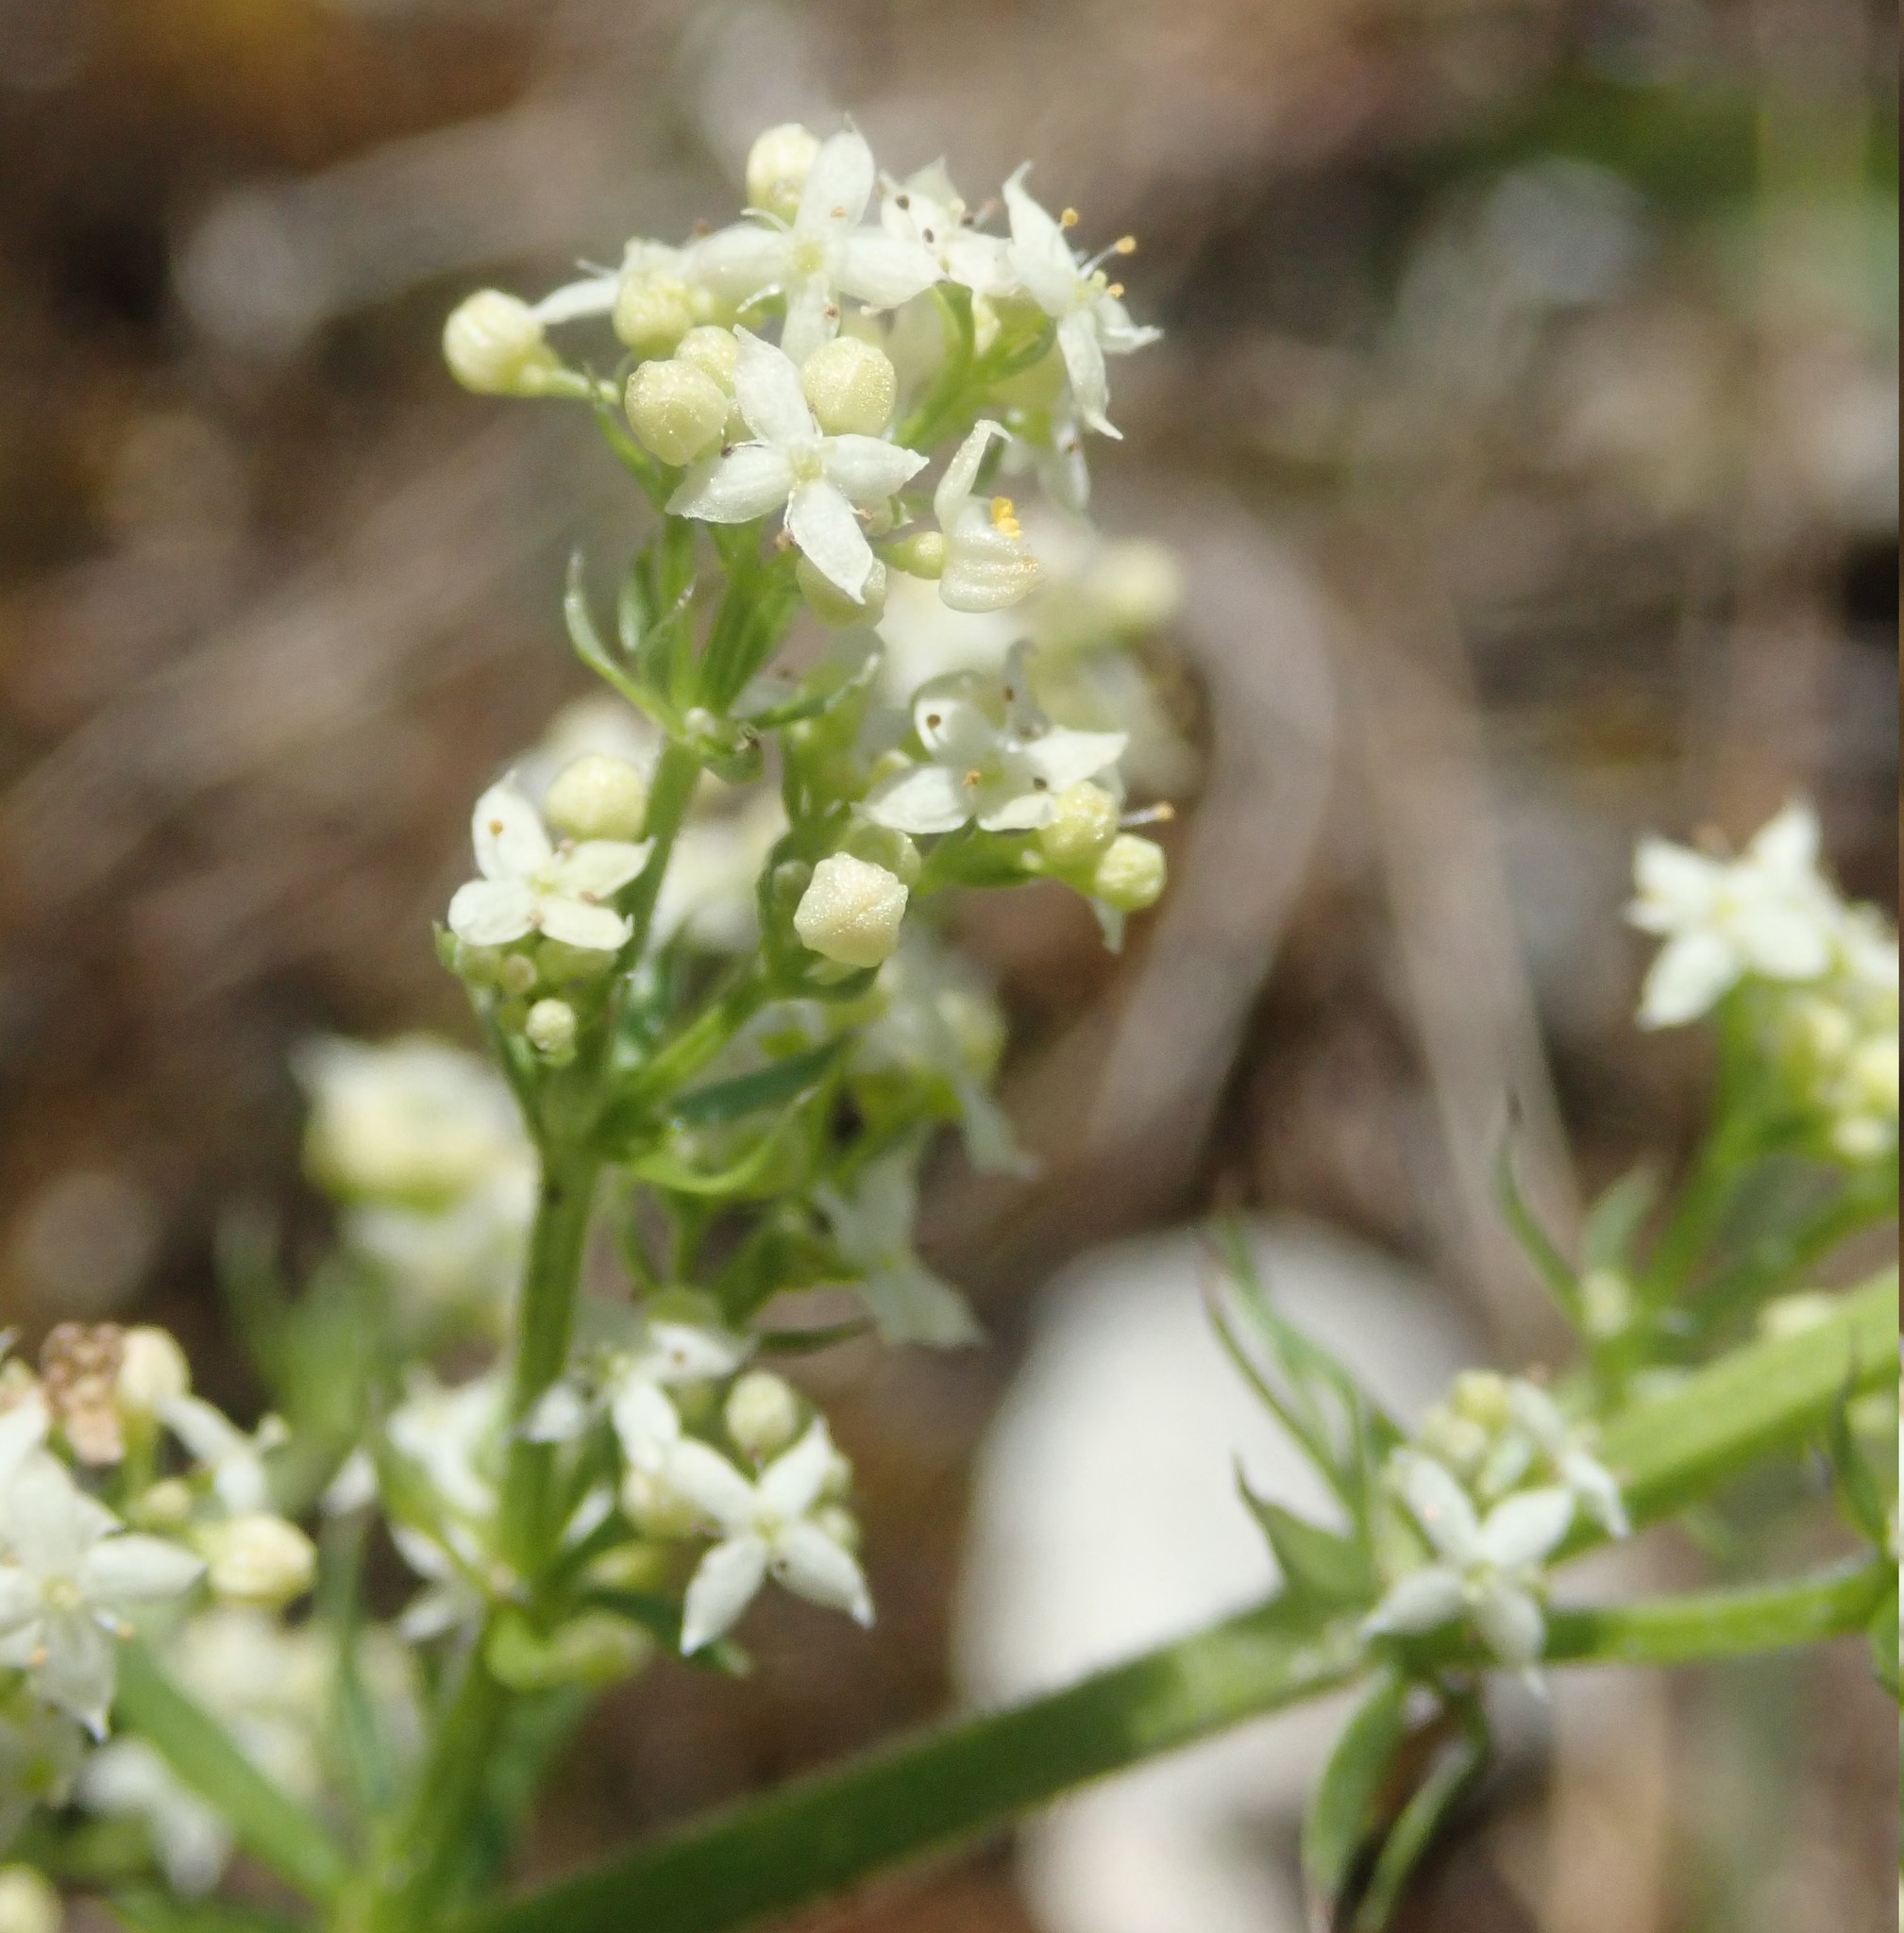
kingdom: Plantae
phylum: Tracheophyta
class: Magnoliopsida
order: Gentianales
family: Rubiaceae
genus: Galium
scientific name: Galium album
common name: White bedstraw
